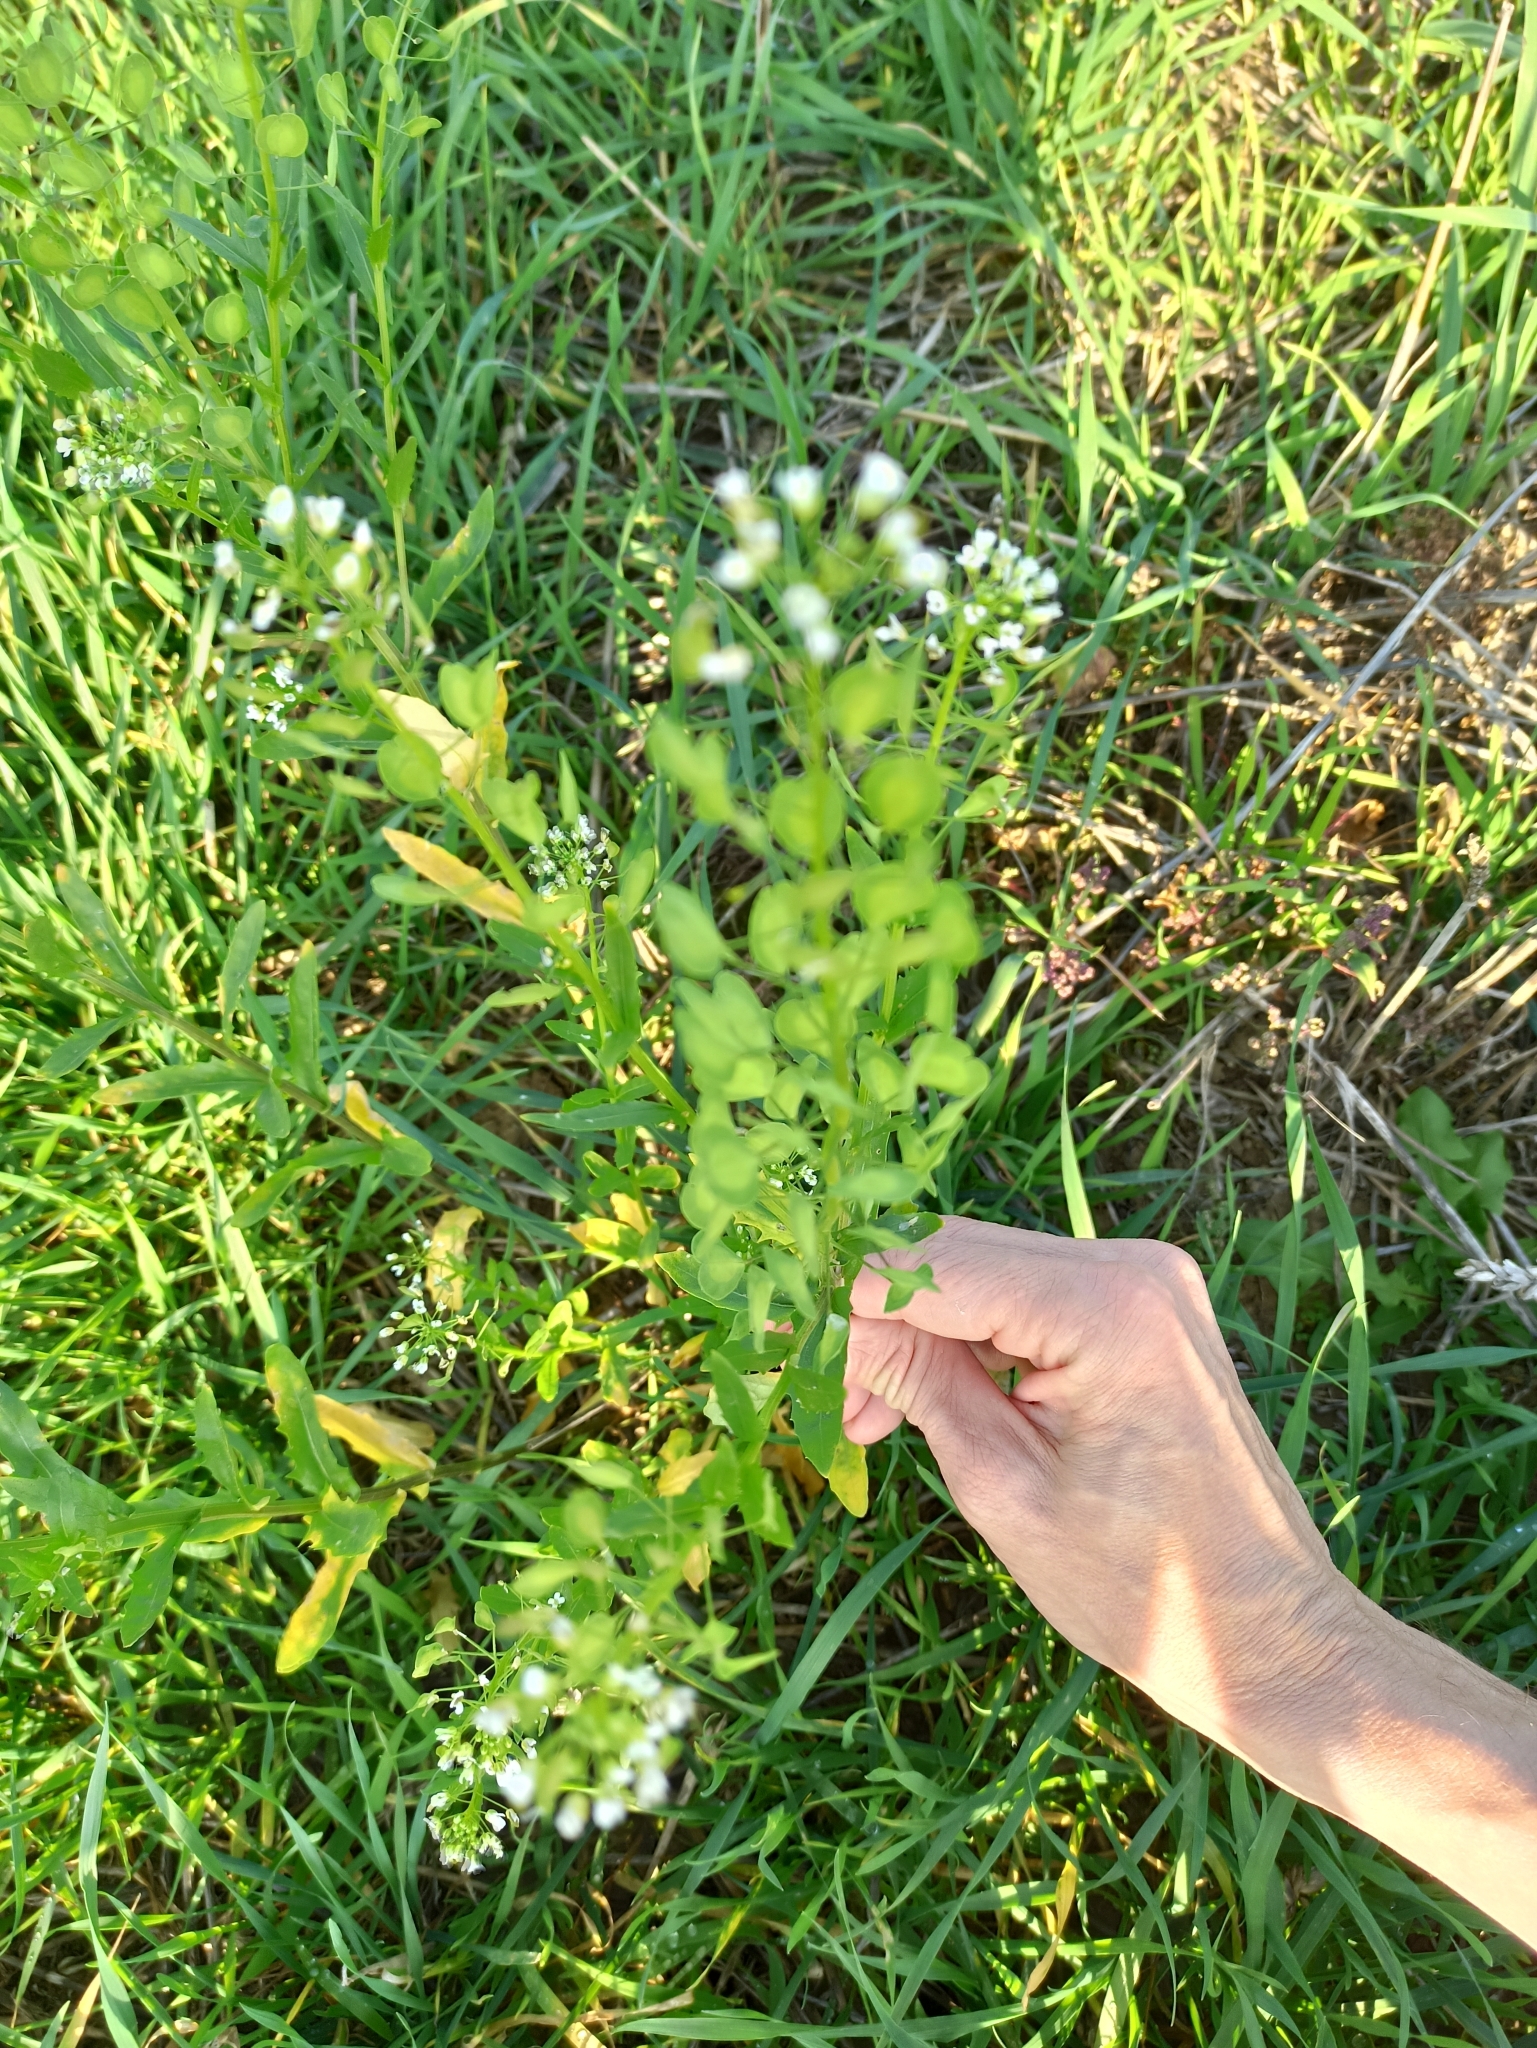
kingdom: Plantae
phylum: Tracheophyta
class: Magnoliopsida
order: Brassicales
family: Brassicaceae
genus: Thlaspi
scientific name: Thlaspi arvense
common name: Field pennycress
